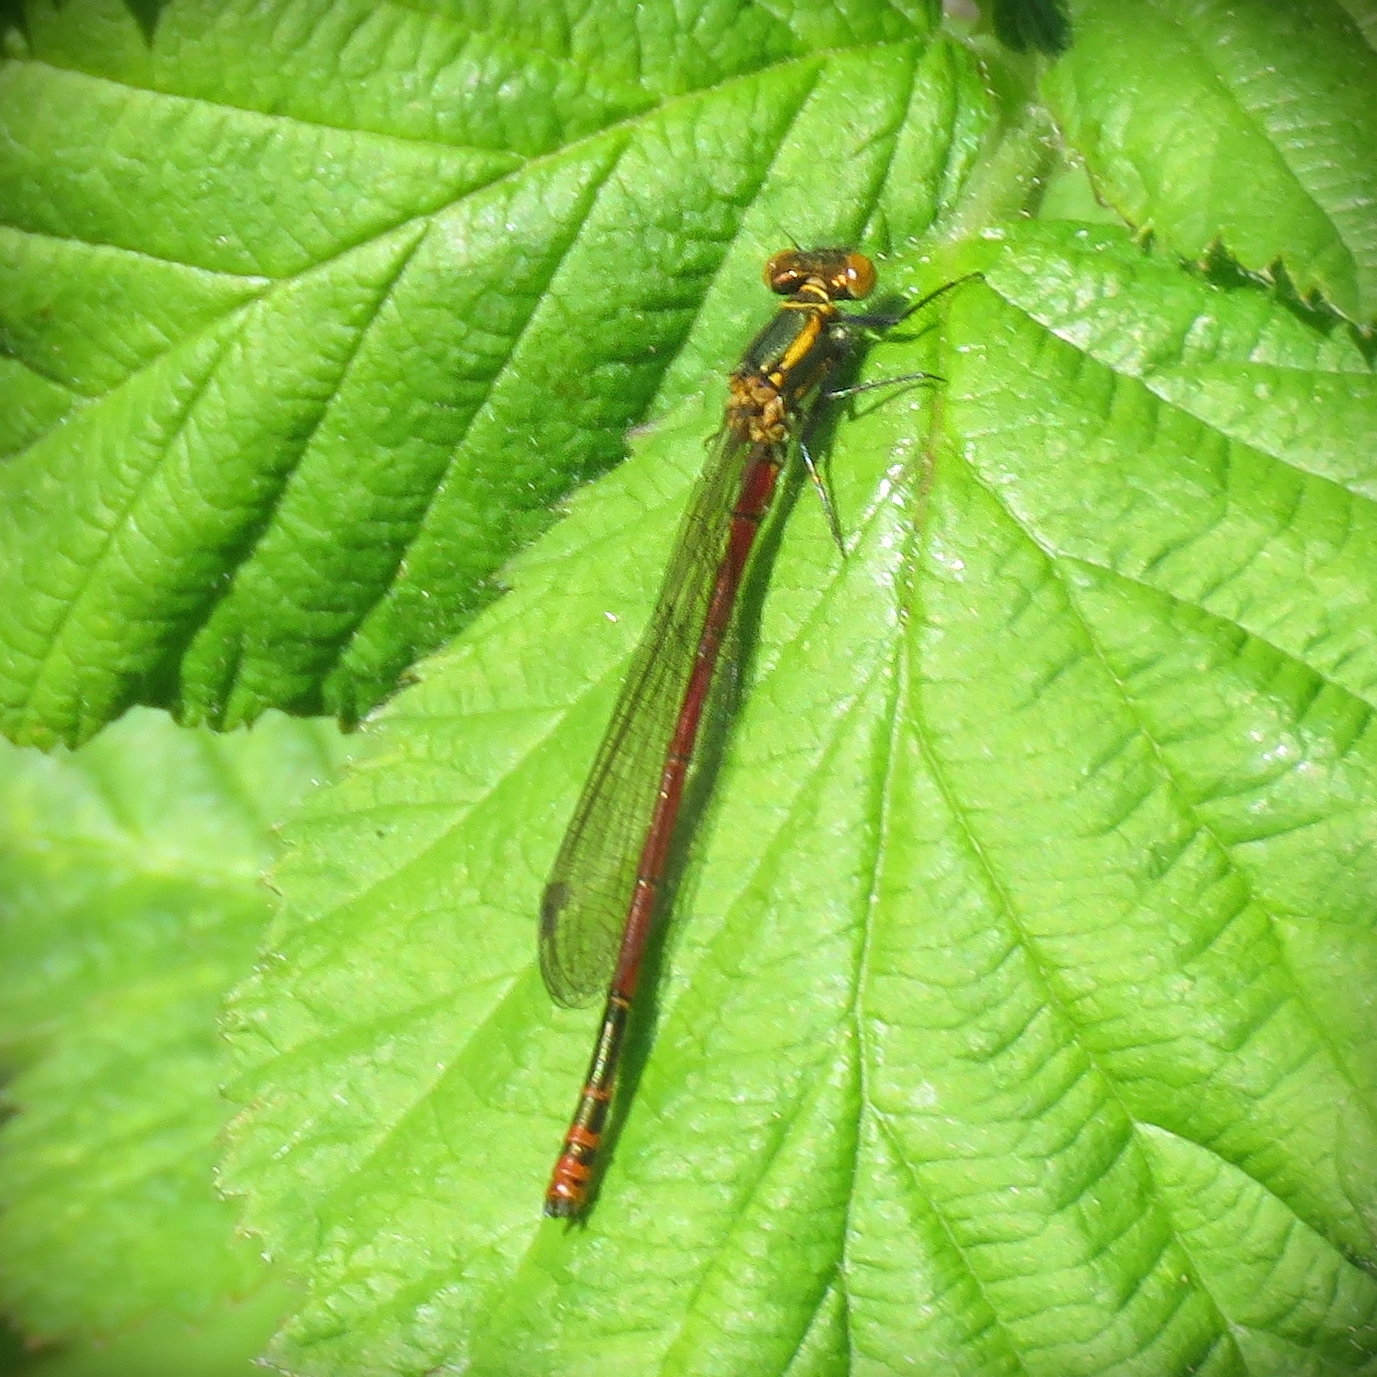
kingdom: Animalia
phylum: Arthropoda
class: Insecta
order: Odonata
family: Coenagrionidae
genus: Pyrrhosoma
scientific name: Pyrrhosoma nymphula
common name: Large red damsel
